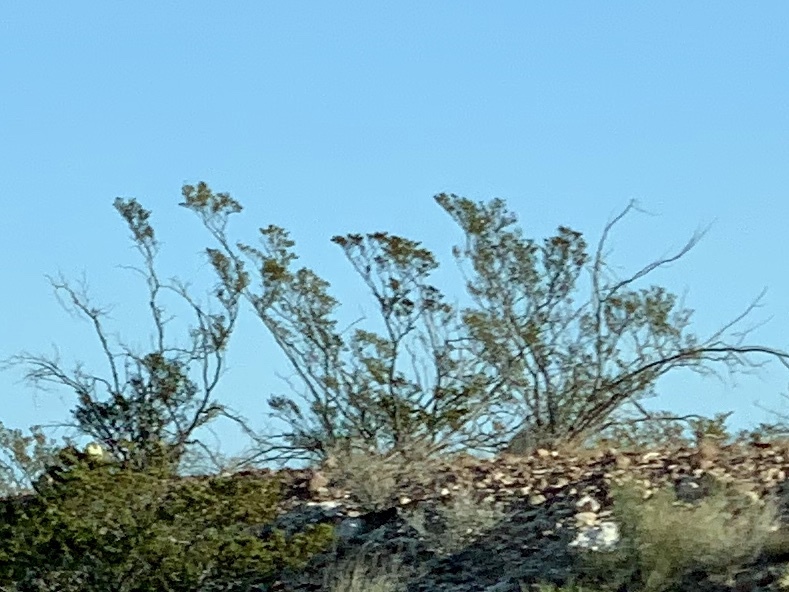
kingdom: Plantae
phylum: Tracheophyta
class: Magnoliopsida
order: Zygophyllales
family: Zygophyllaceae
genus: Larrea
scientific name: Larrea tridentata
